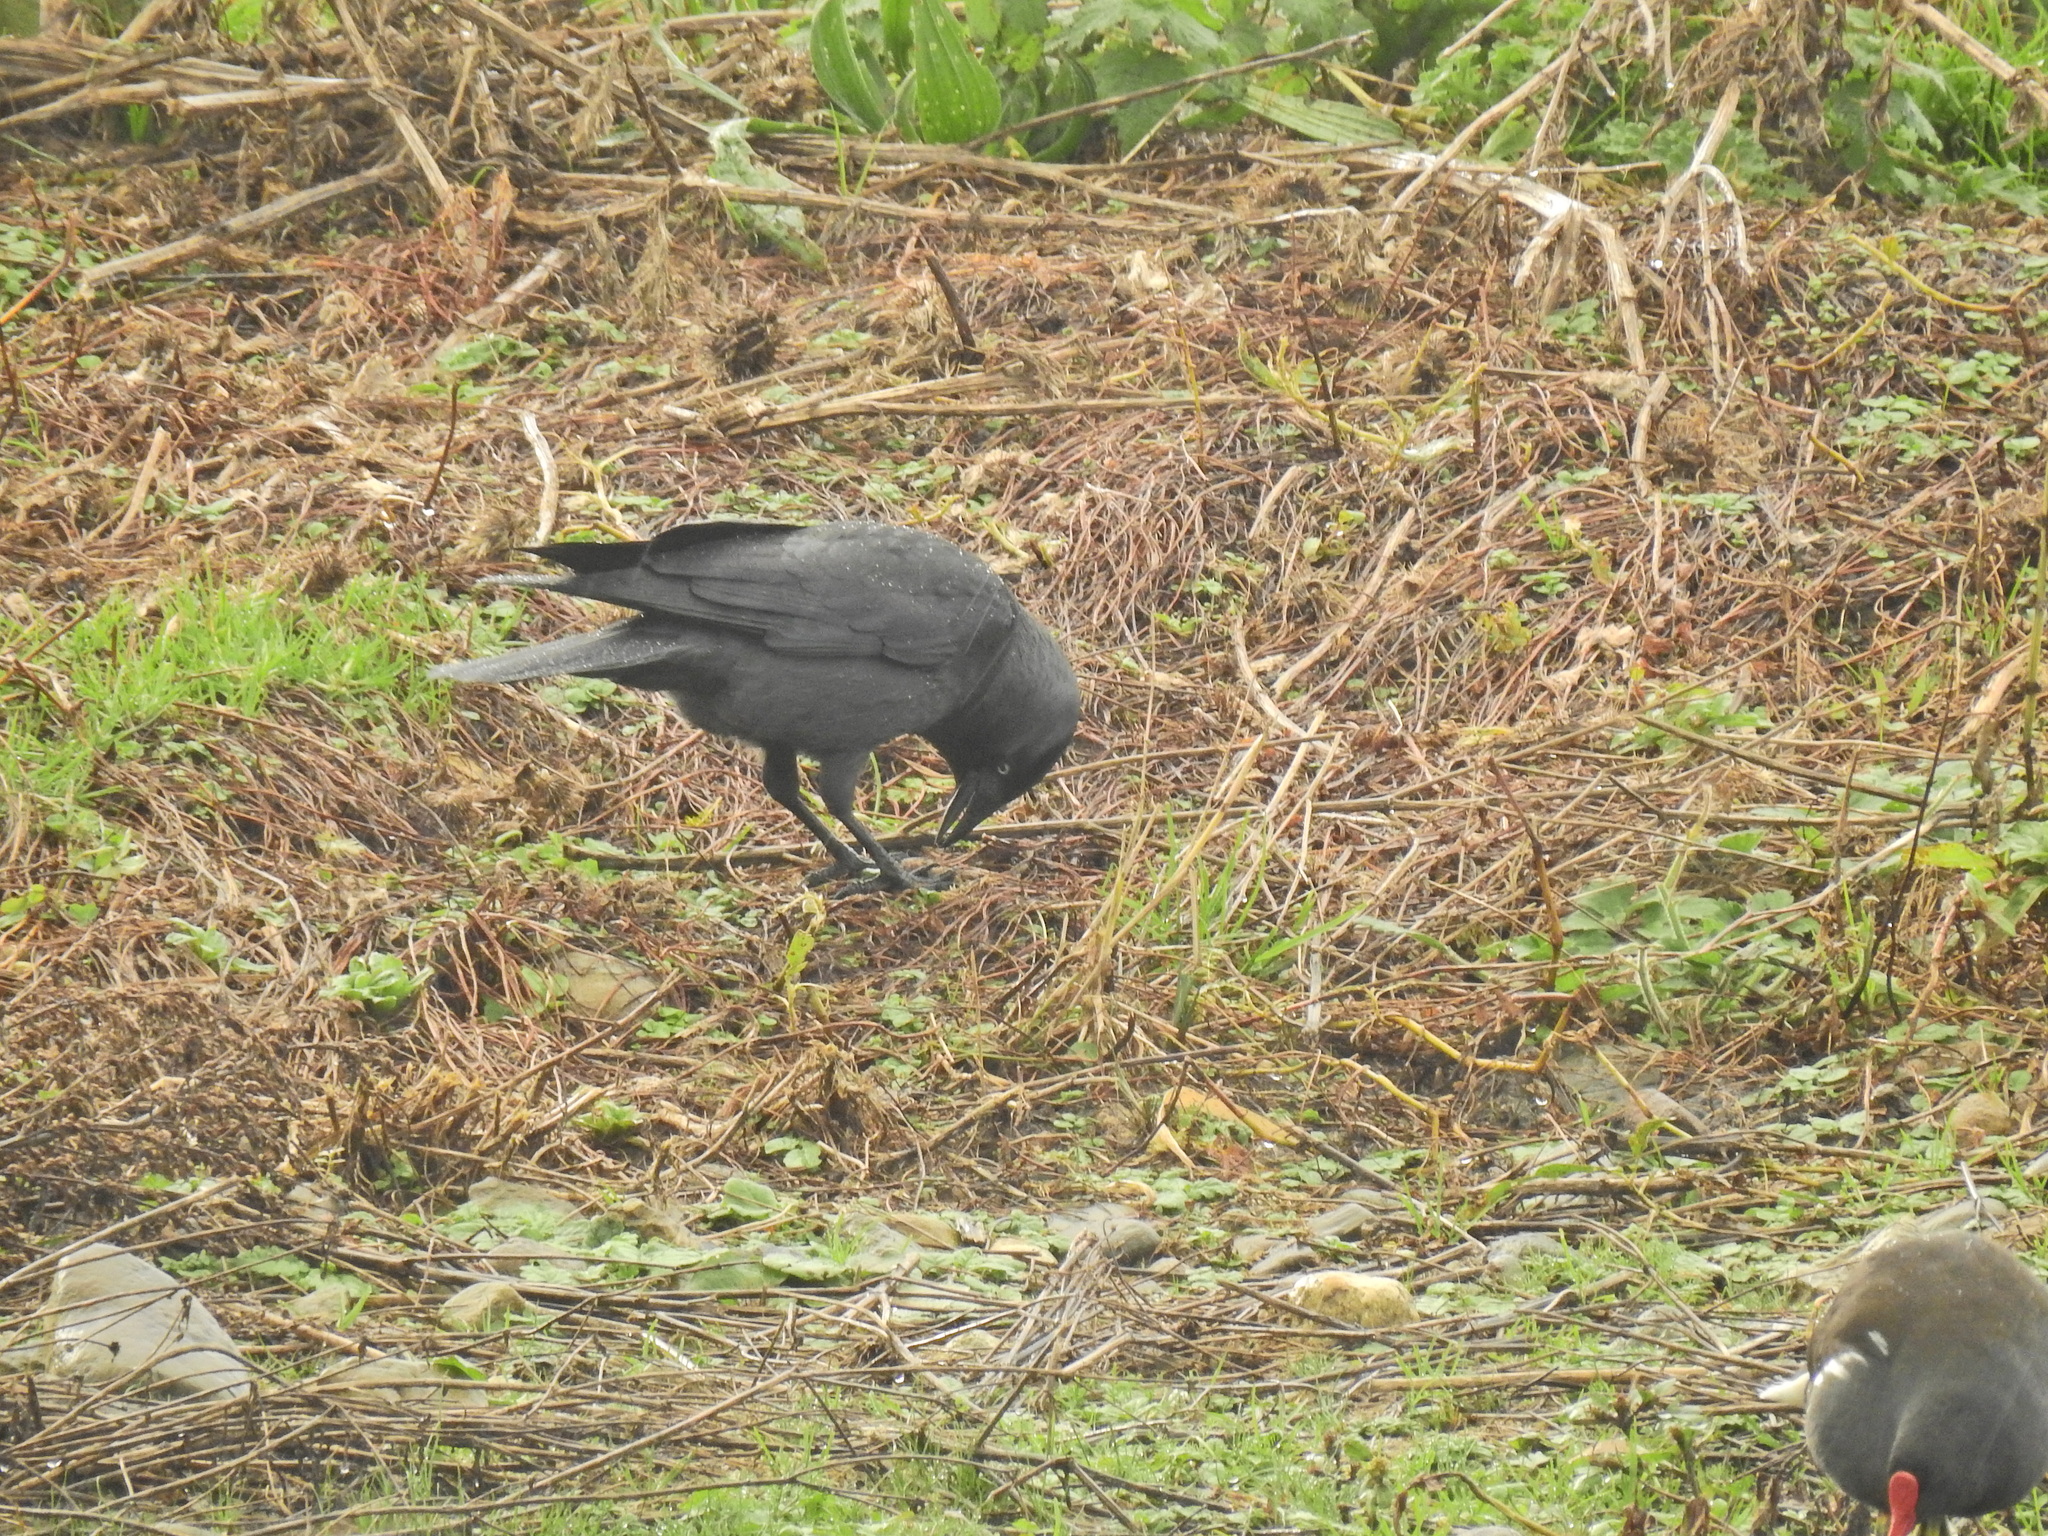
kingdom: Animalia
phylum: Chordata
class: Aves
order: Passeriformes
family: Corvidae
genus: Coloeus
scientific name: Coloeus monedula
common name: Western jackdaw
